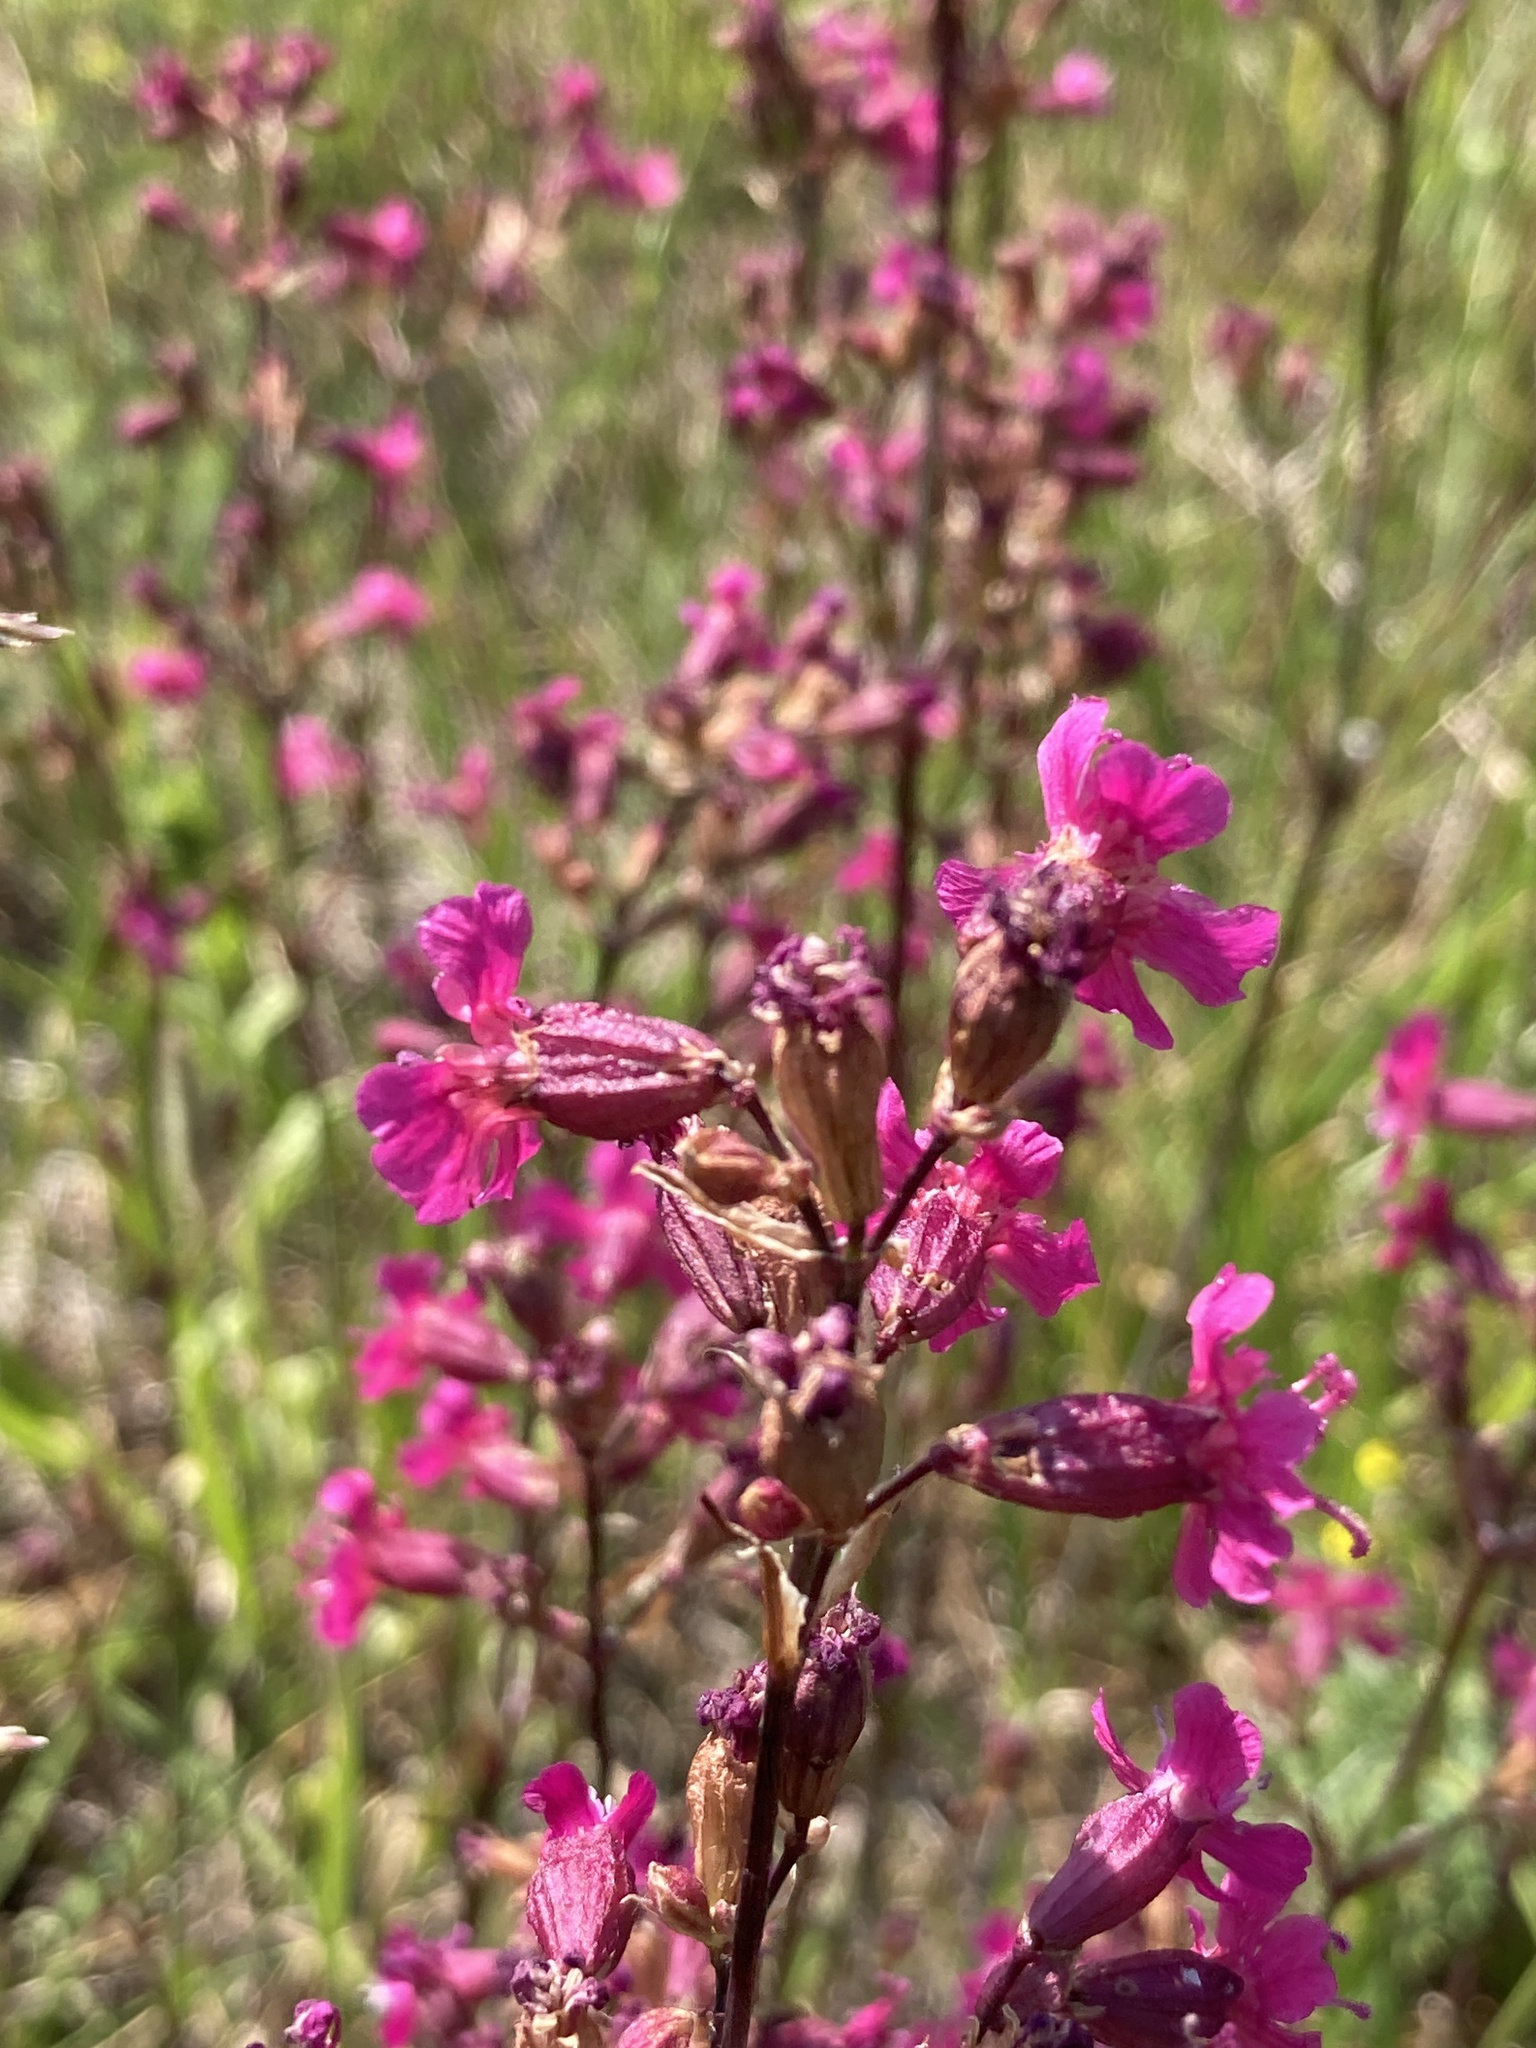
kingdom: Plantae
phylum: Tracheophyta
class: Magnoliopsida
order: Caryophyllales
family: Caryophyllaceae
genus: Viscaria
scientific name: Viscaria vulgaris
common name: Clammy campion
